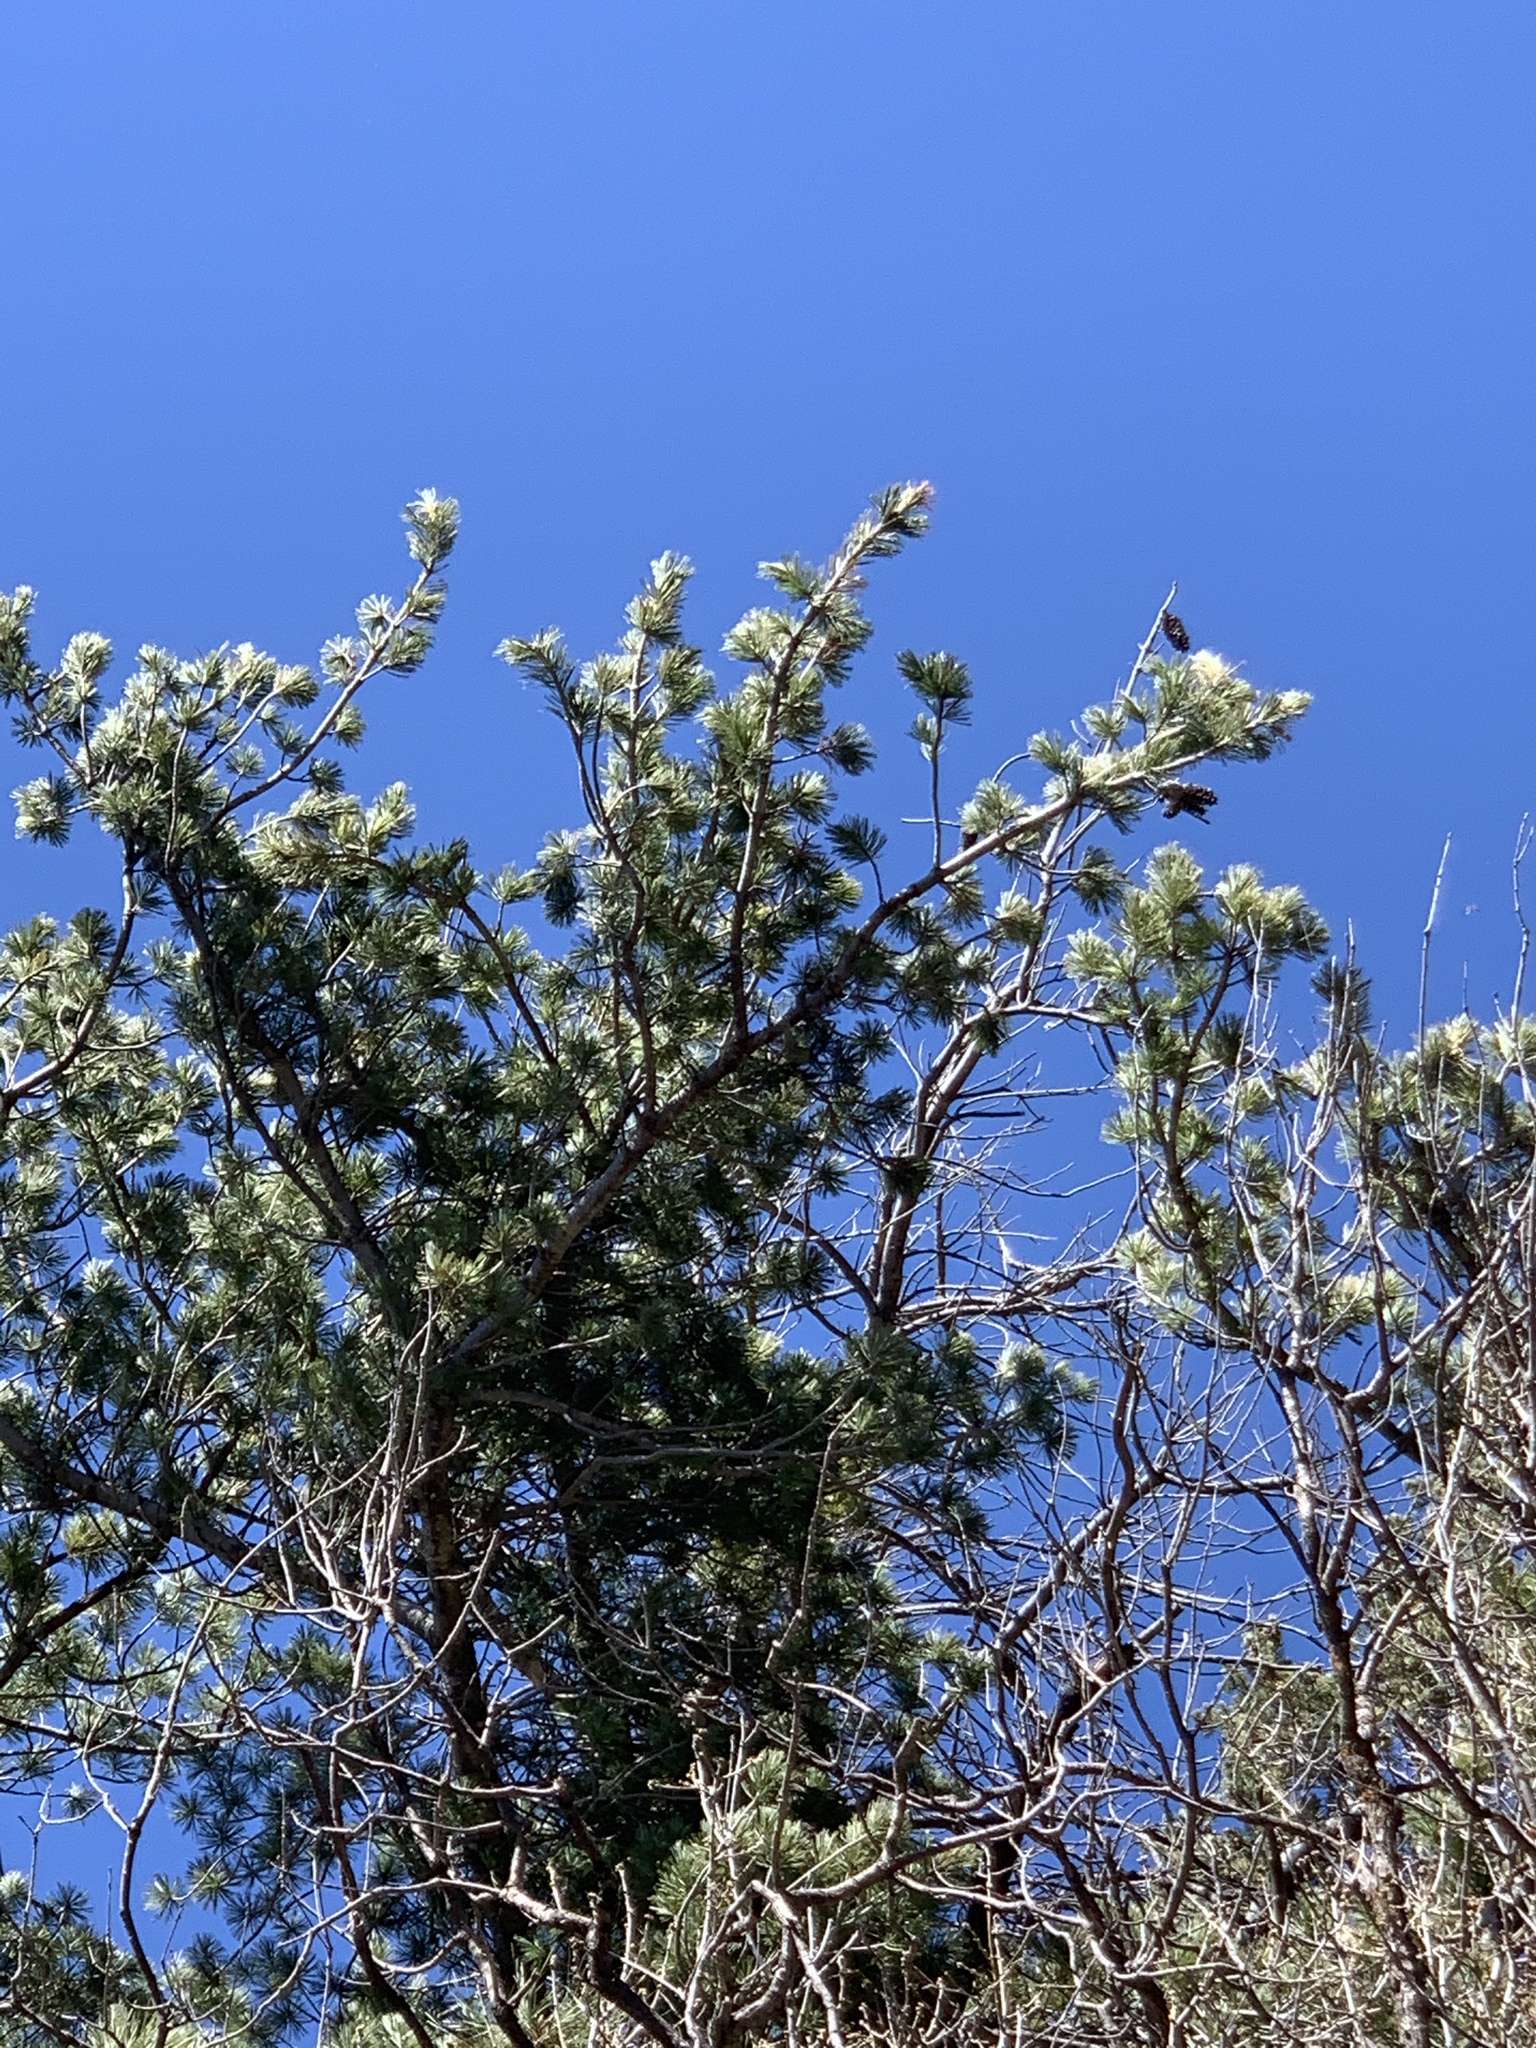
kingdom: Plantae
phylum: Tracheophyta
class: Pinopsida
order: Pinales
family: Pinaceae
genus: Pinus
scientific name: Pinus strobiformis
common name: Southwestern white pine
